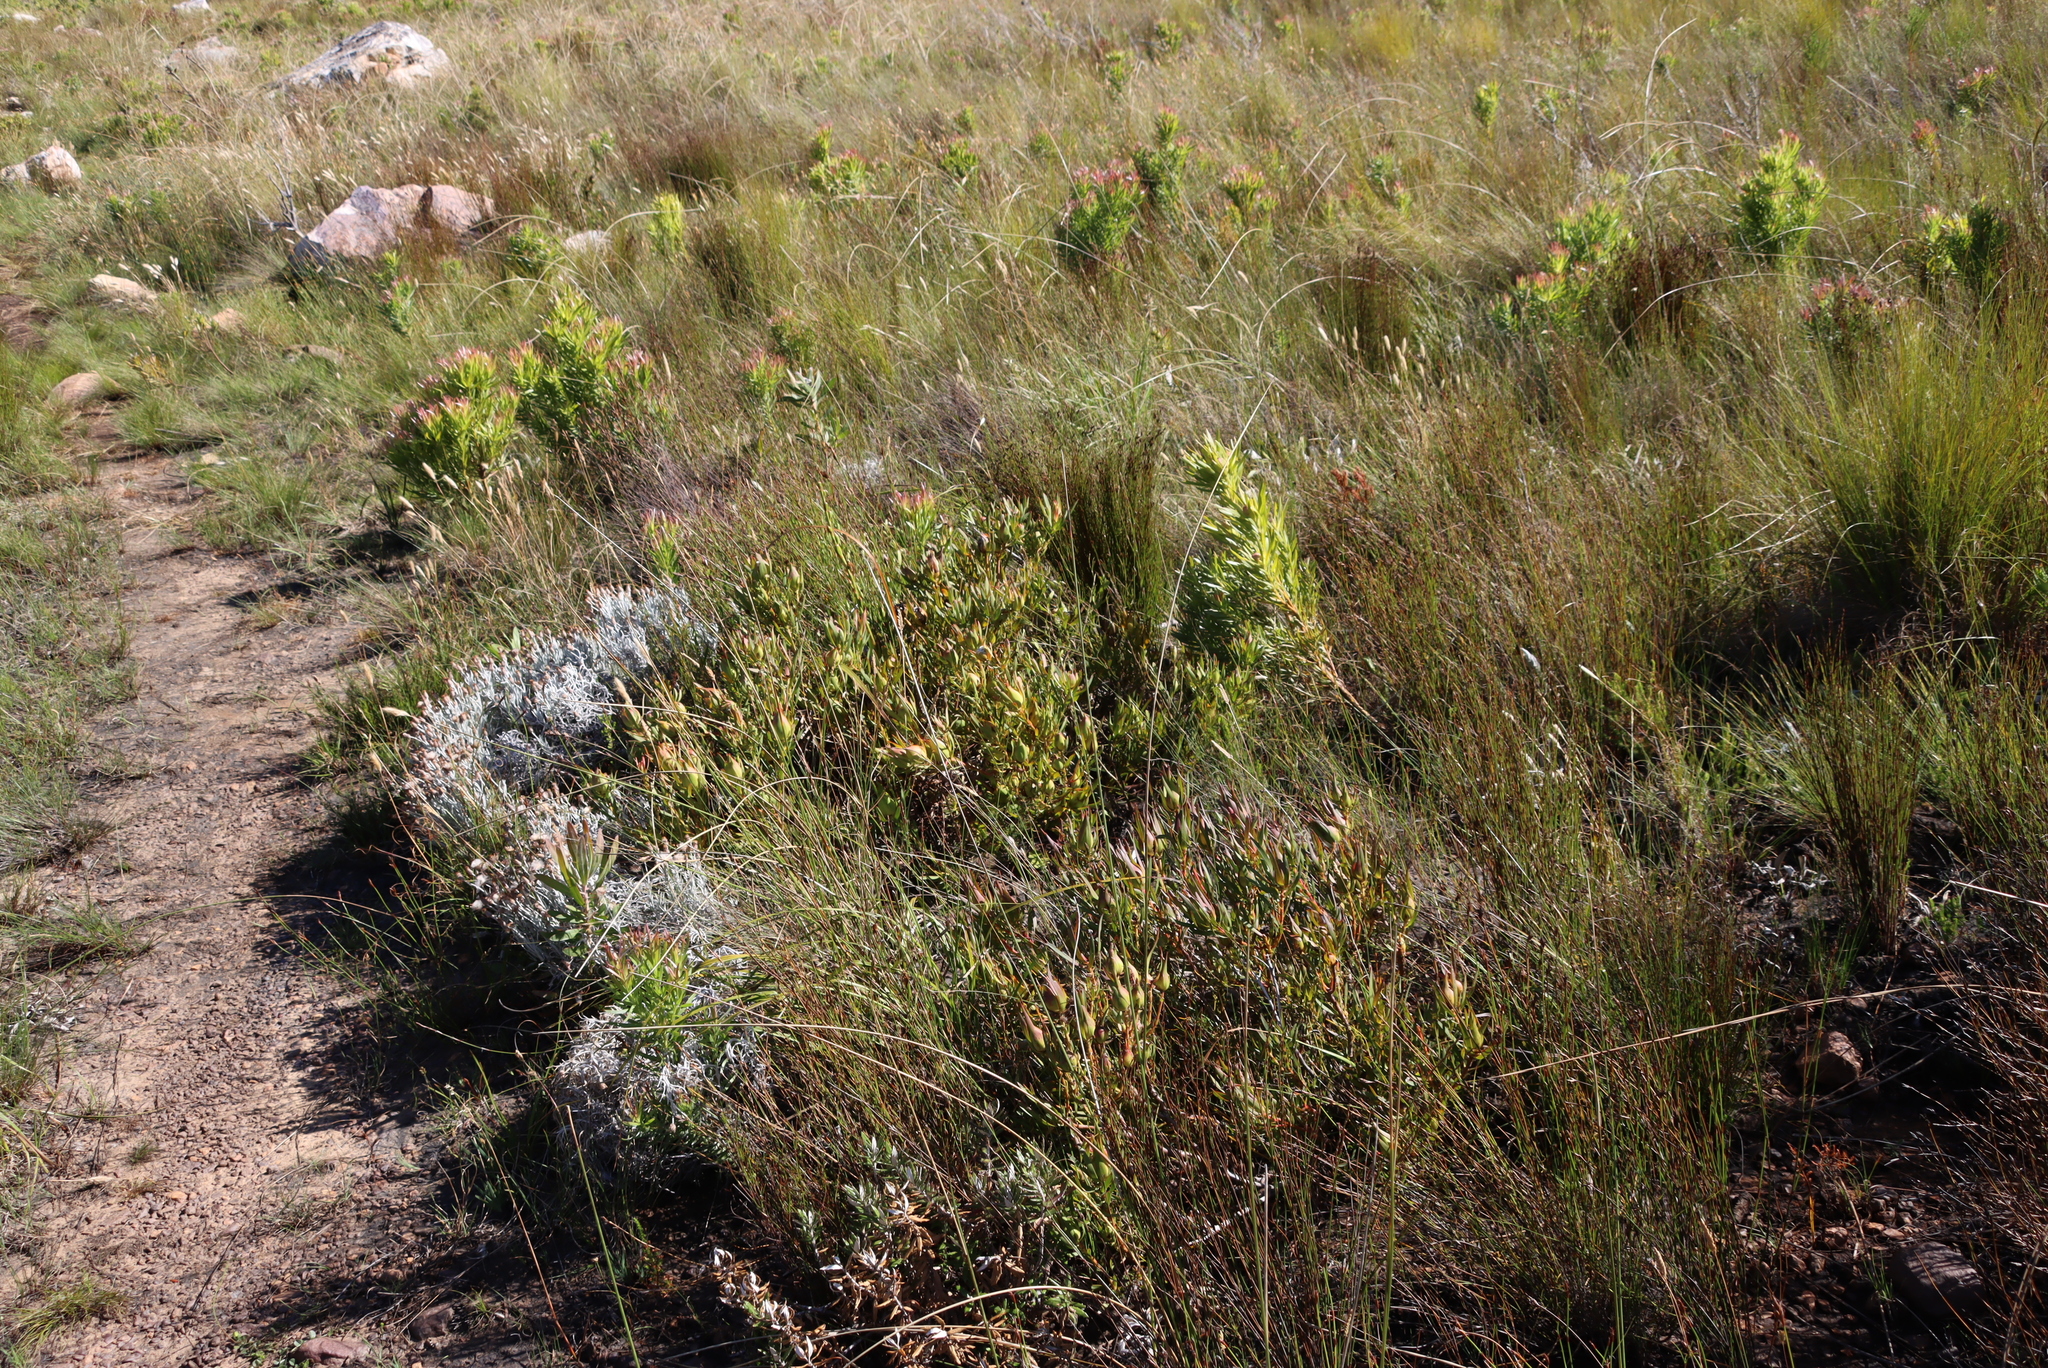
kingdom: Plantae
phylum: Tracheophyta
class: Magnoliopsida
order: Proteales
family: Proteaceae
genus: Leucadendron
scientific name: Leucadendron salignum
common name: Common sunshine conebush
